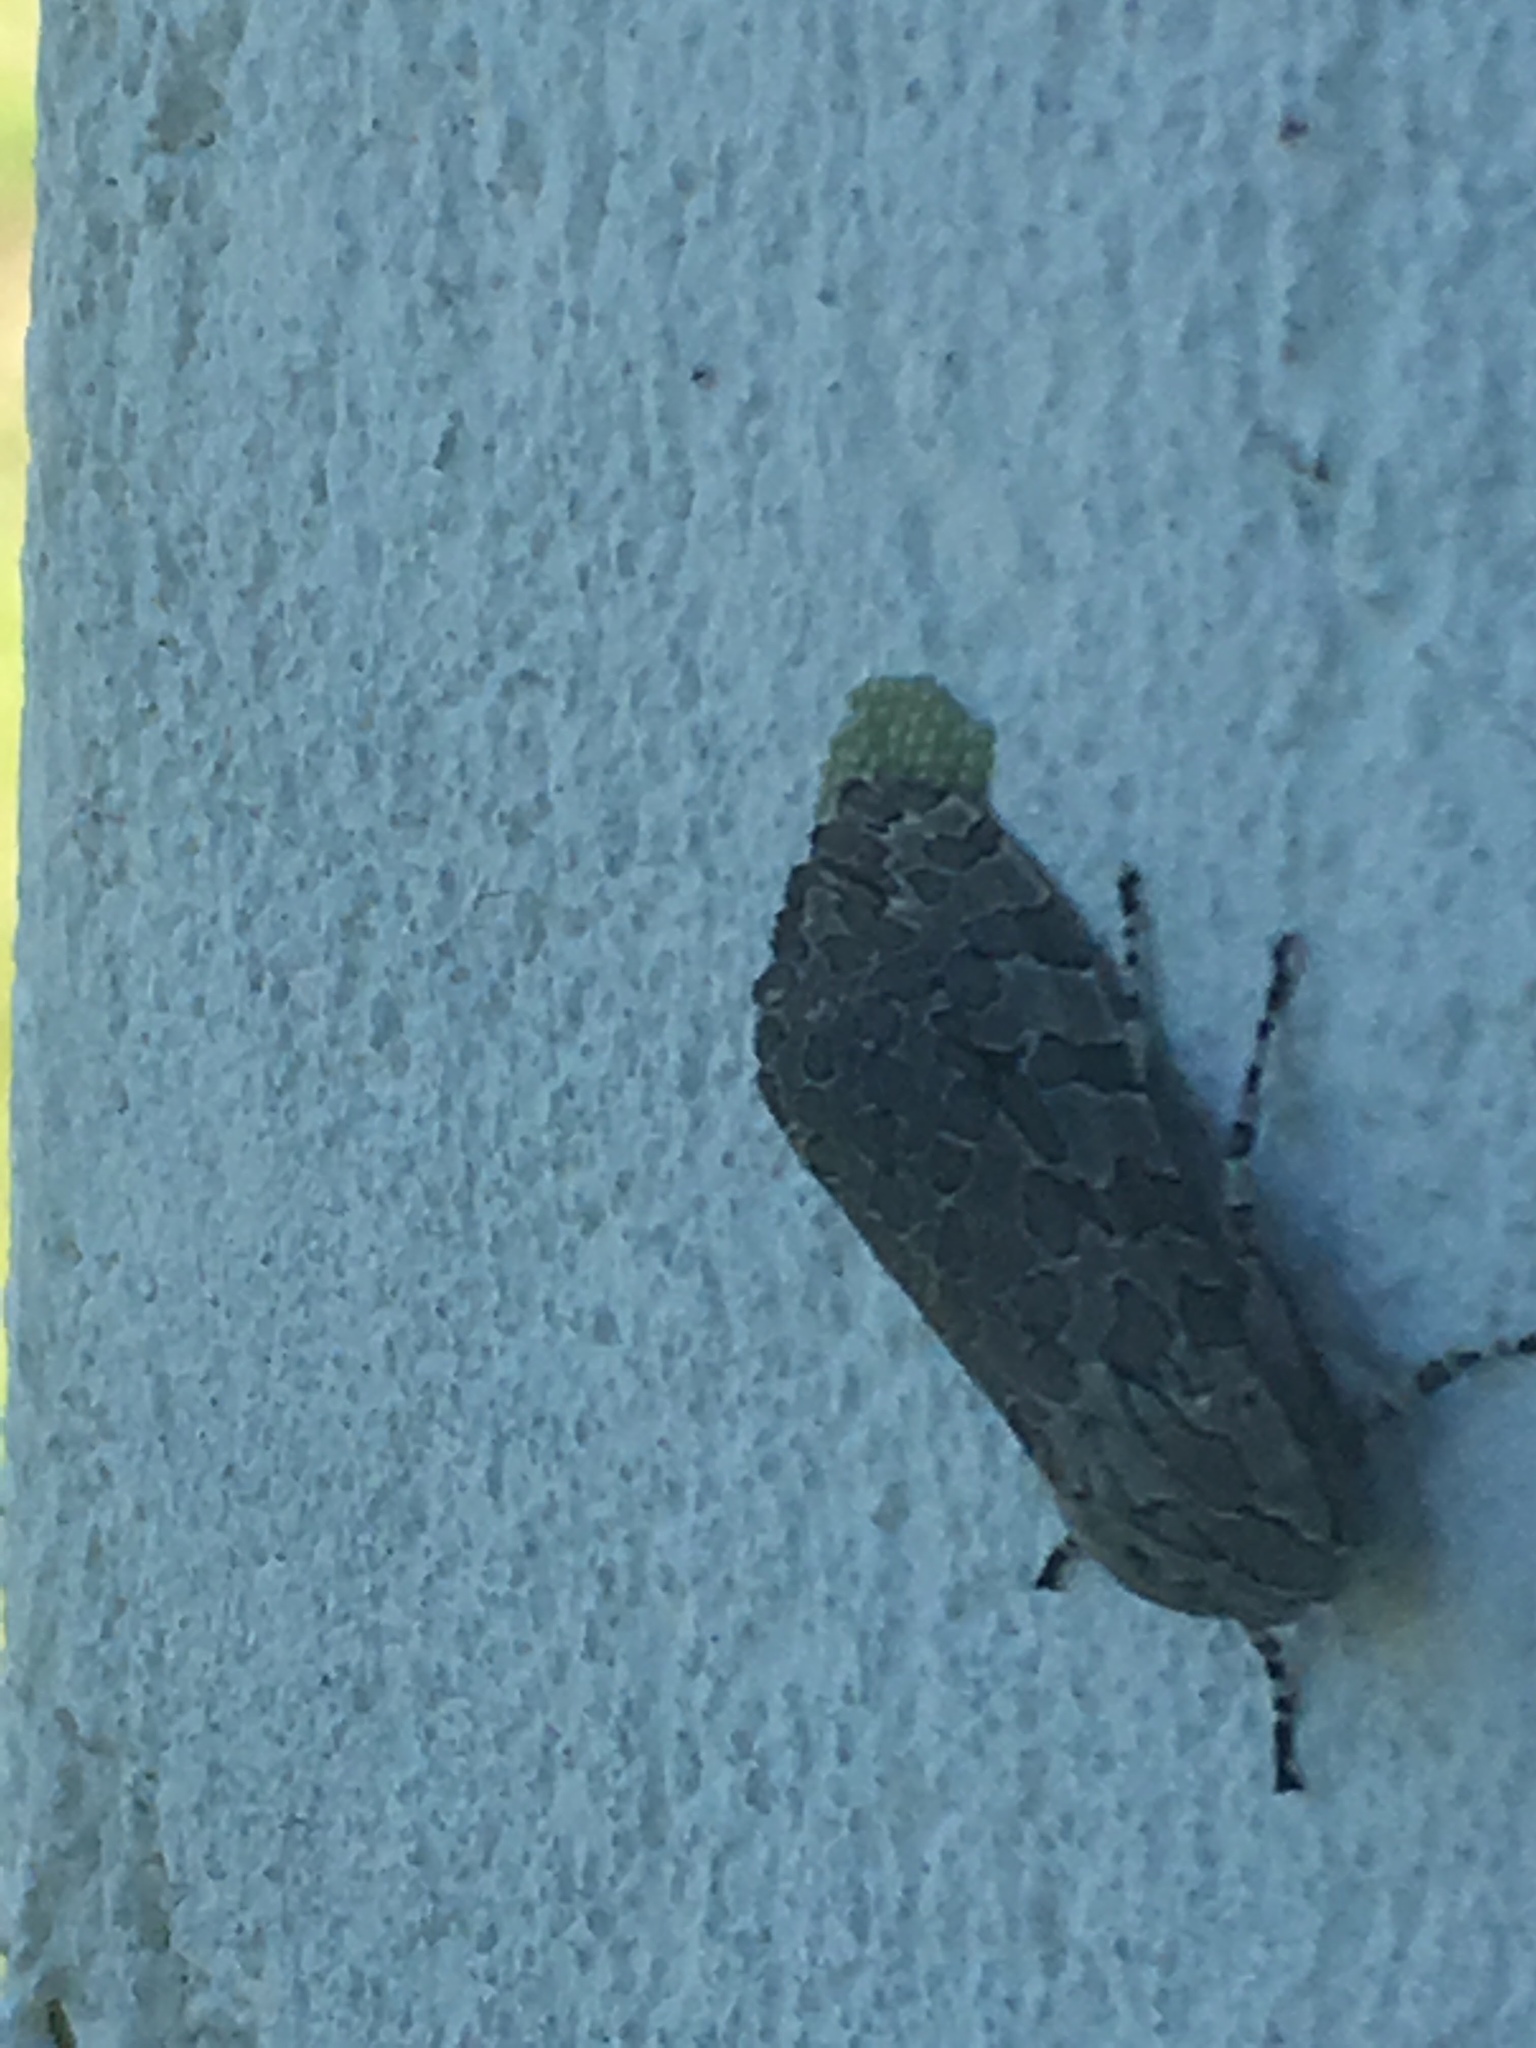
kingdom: Animalia
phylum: Arthropoda
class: Insecta
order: Lepidoptera
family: Erebidae
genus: Hypercompe
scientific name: Hypercompe indecisa
